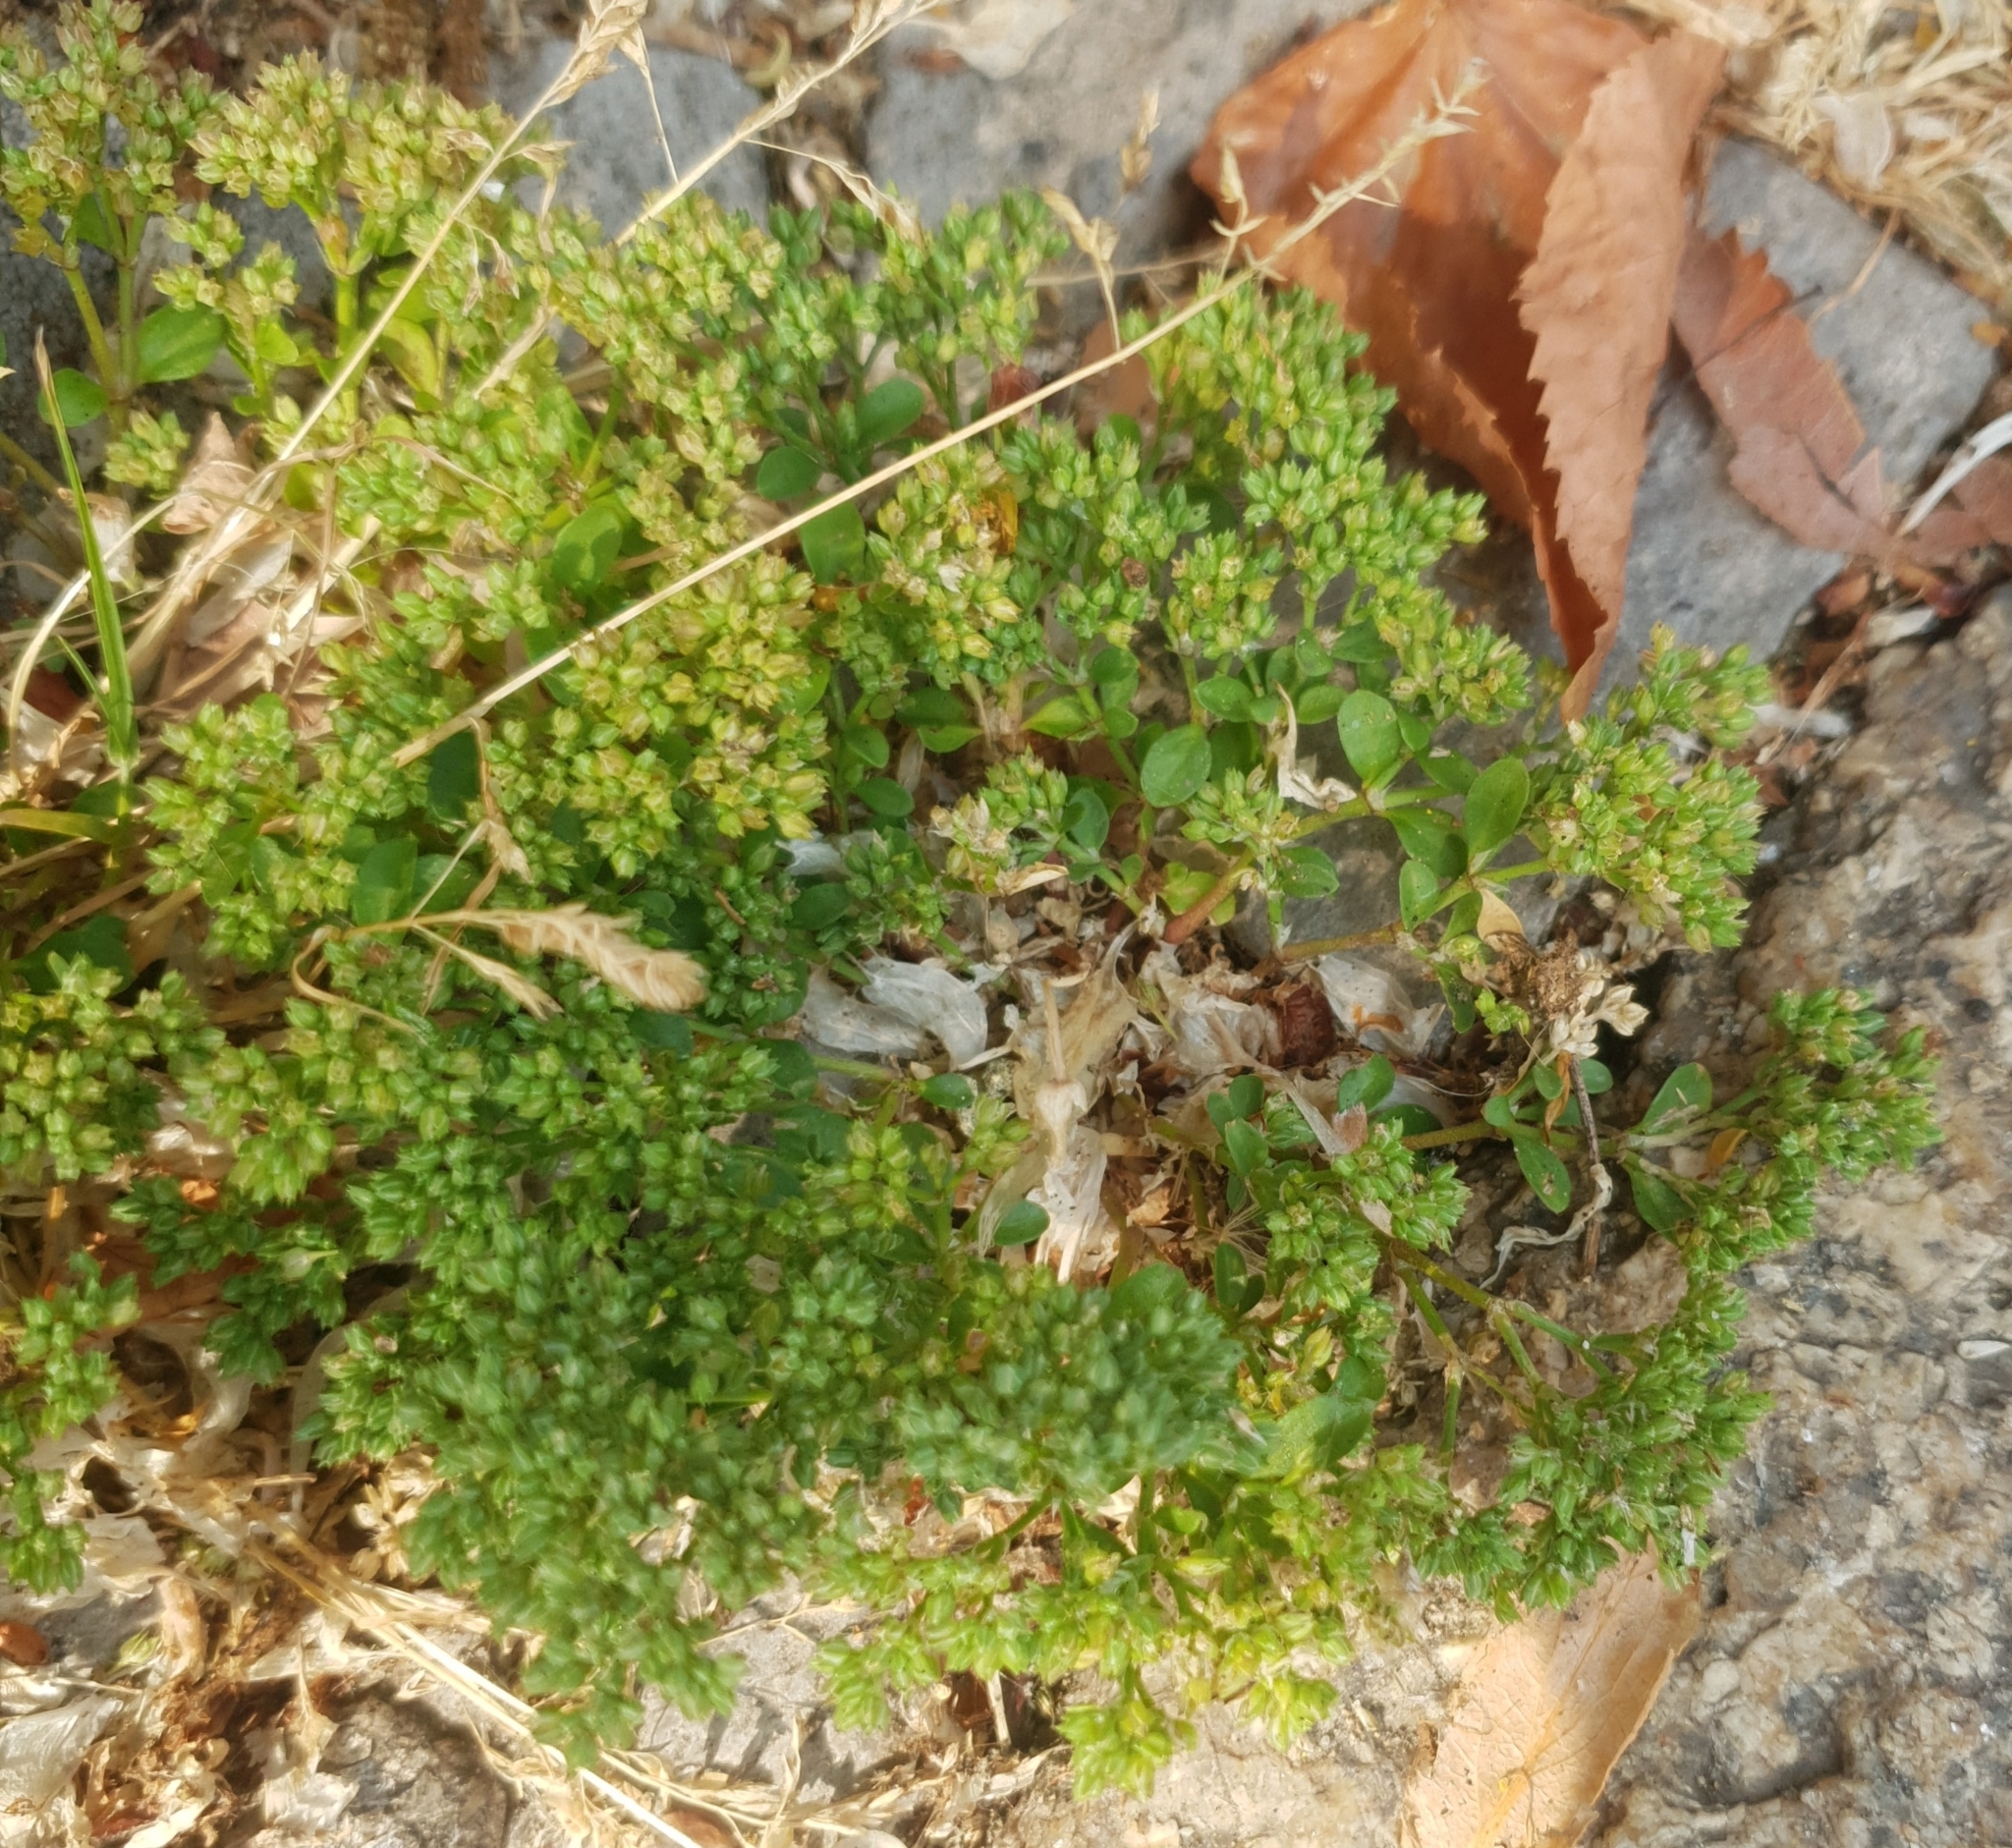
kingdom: Plantae
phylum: Tracheophyta
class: Magnoliopsida
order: Caryophyllales
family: Caryophyllaceae
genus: Polycarpon
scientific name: Polycarpon tetraphyllum
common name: Four-leaved all-seed
